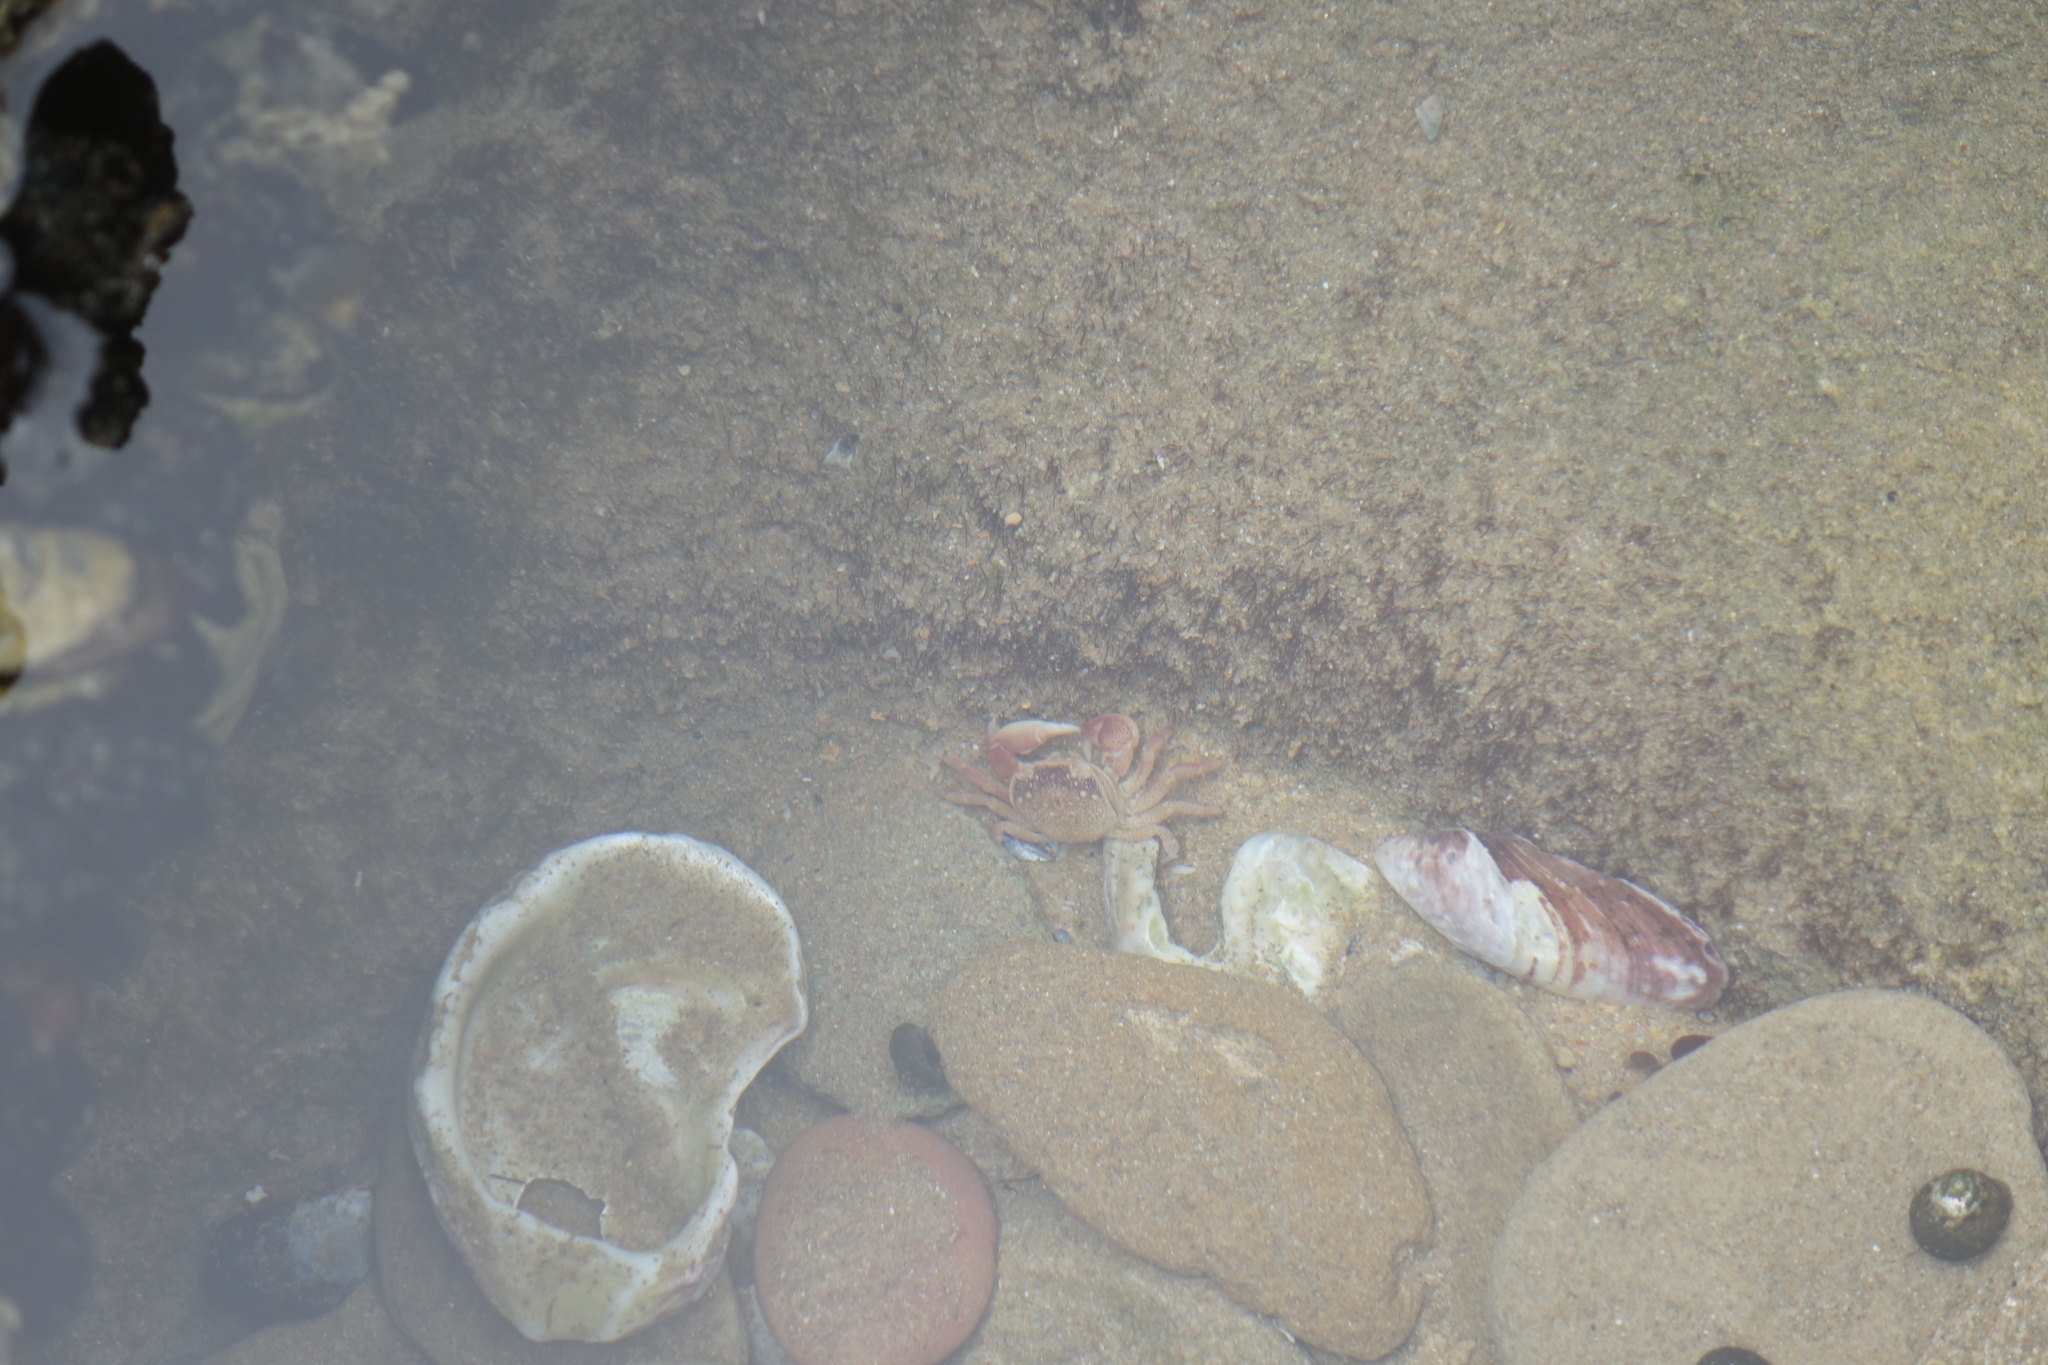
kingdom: Animalia
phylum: Arthropoda
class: Malacostraca
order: Decapoda
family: Varunidae
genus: Cyclograpsus
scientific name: Cyclograpsus punctatus
